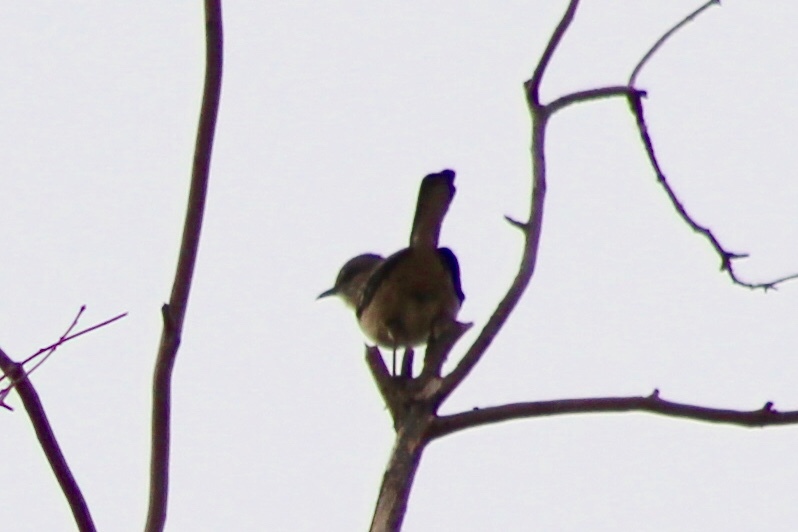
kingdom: Animalia
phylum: Chordata
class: Aves
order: Passeriformes
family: Mimidae
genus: Mimus
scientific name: Mimus polyglottos
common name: Northern mockingbird
